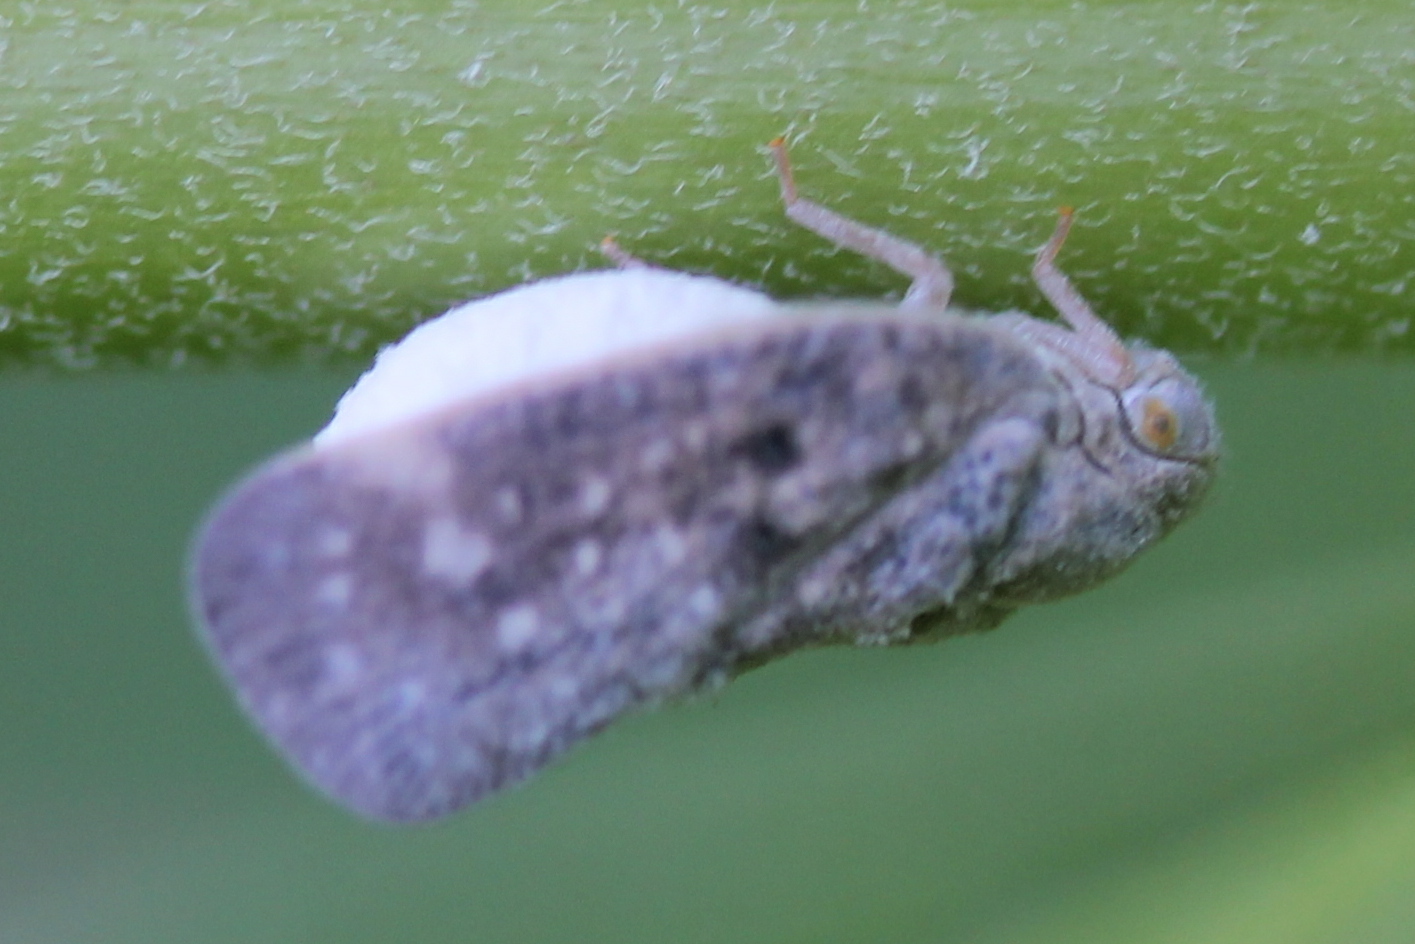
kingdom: Animalia
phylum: Arthropoda
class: Insecta
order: Lepidoptera
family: Epipyropidae
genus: Fulgoraecia
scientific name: Fulgoraecia exigua
